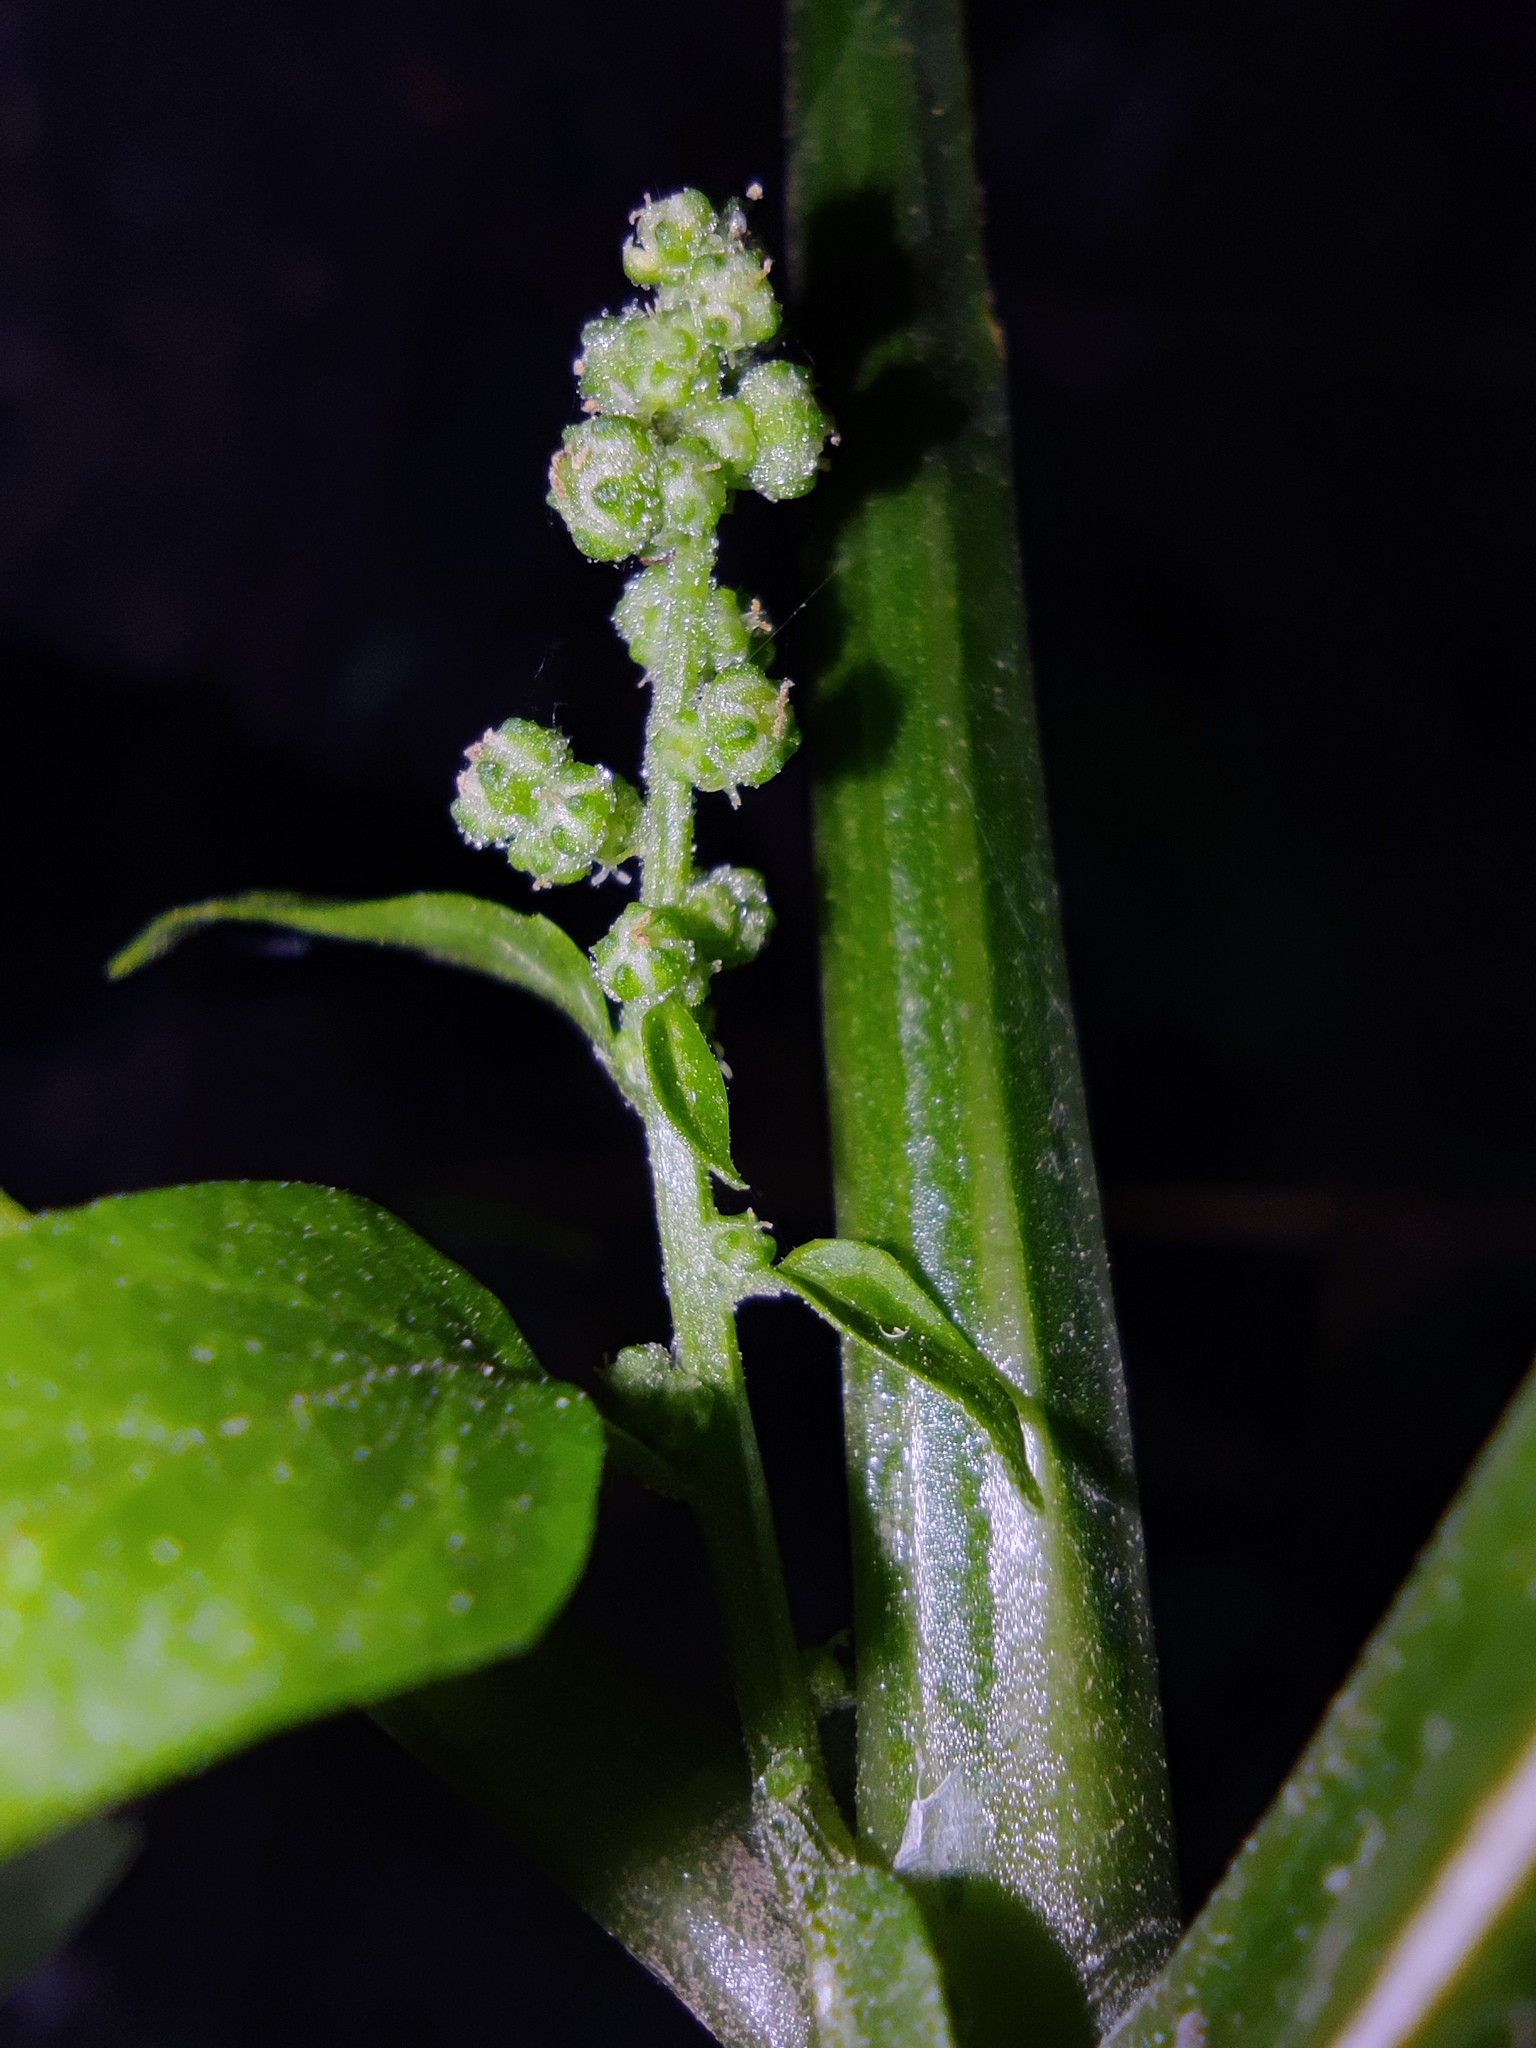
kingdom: Plantae
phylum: Tracheophyta
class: Magnoliopsida
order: Caryophyllales
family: Amaranthaceae
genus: Chenopodiastrum
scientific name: Chenopodiastrum hybridum
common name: Mapleleaf goosefoot
